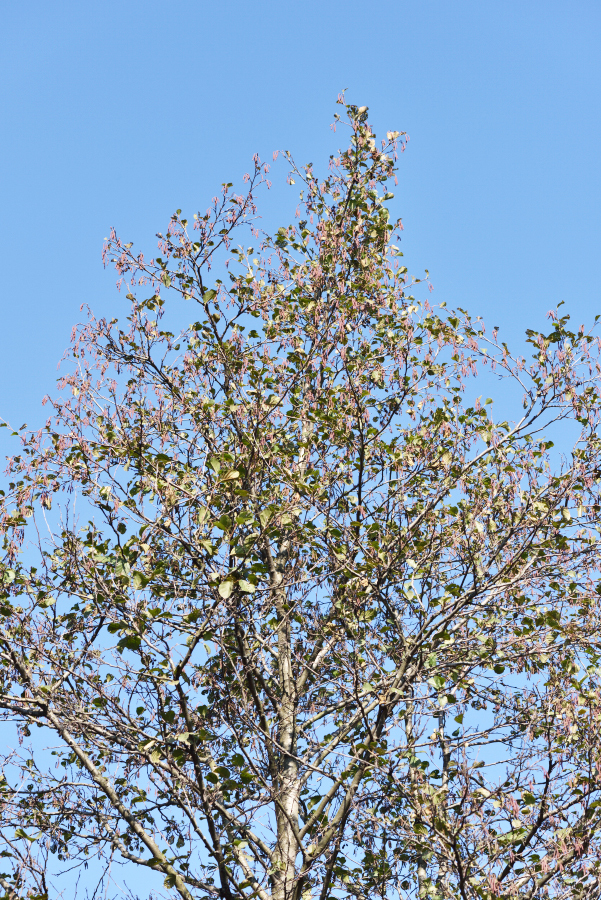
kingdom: Plantae
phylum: Tracheophyta
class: Magnoliopsida
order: Fagales
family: Betulaceae
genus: Alnus
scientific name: Alnus incana
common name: Grey alder
